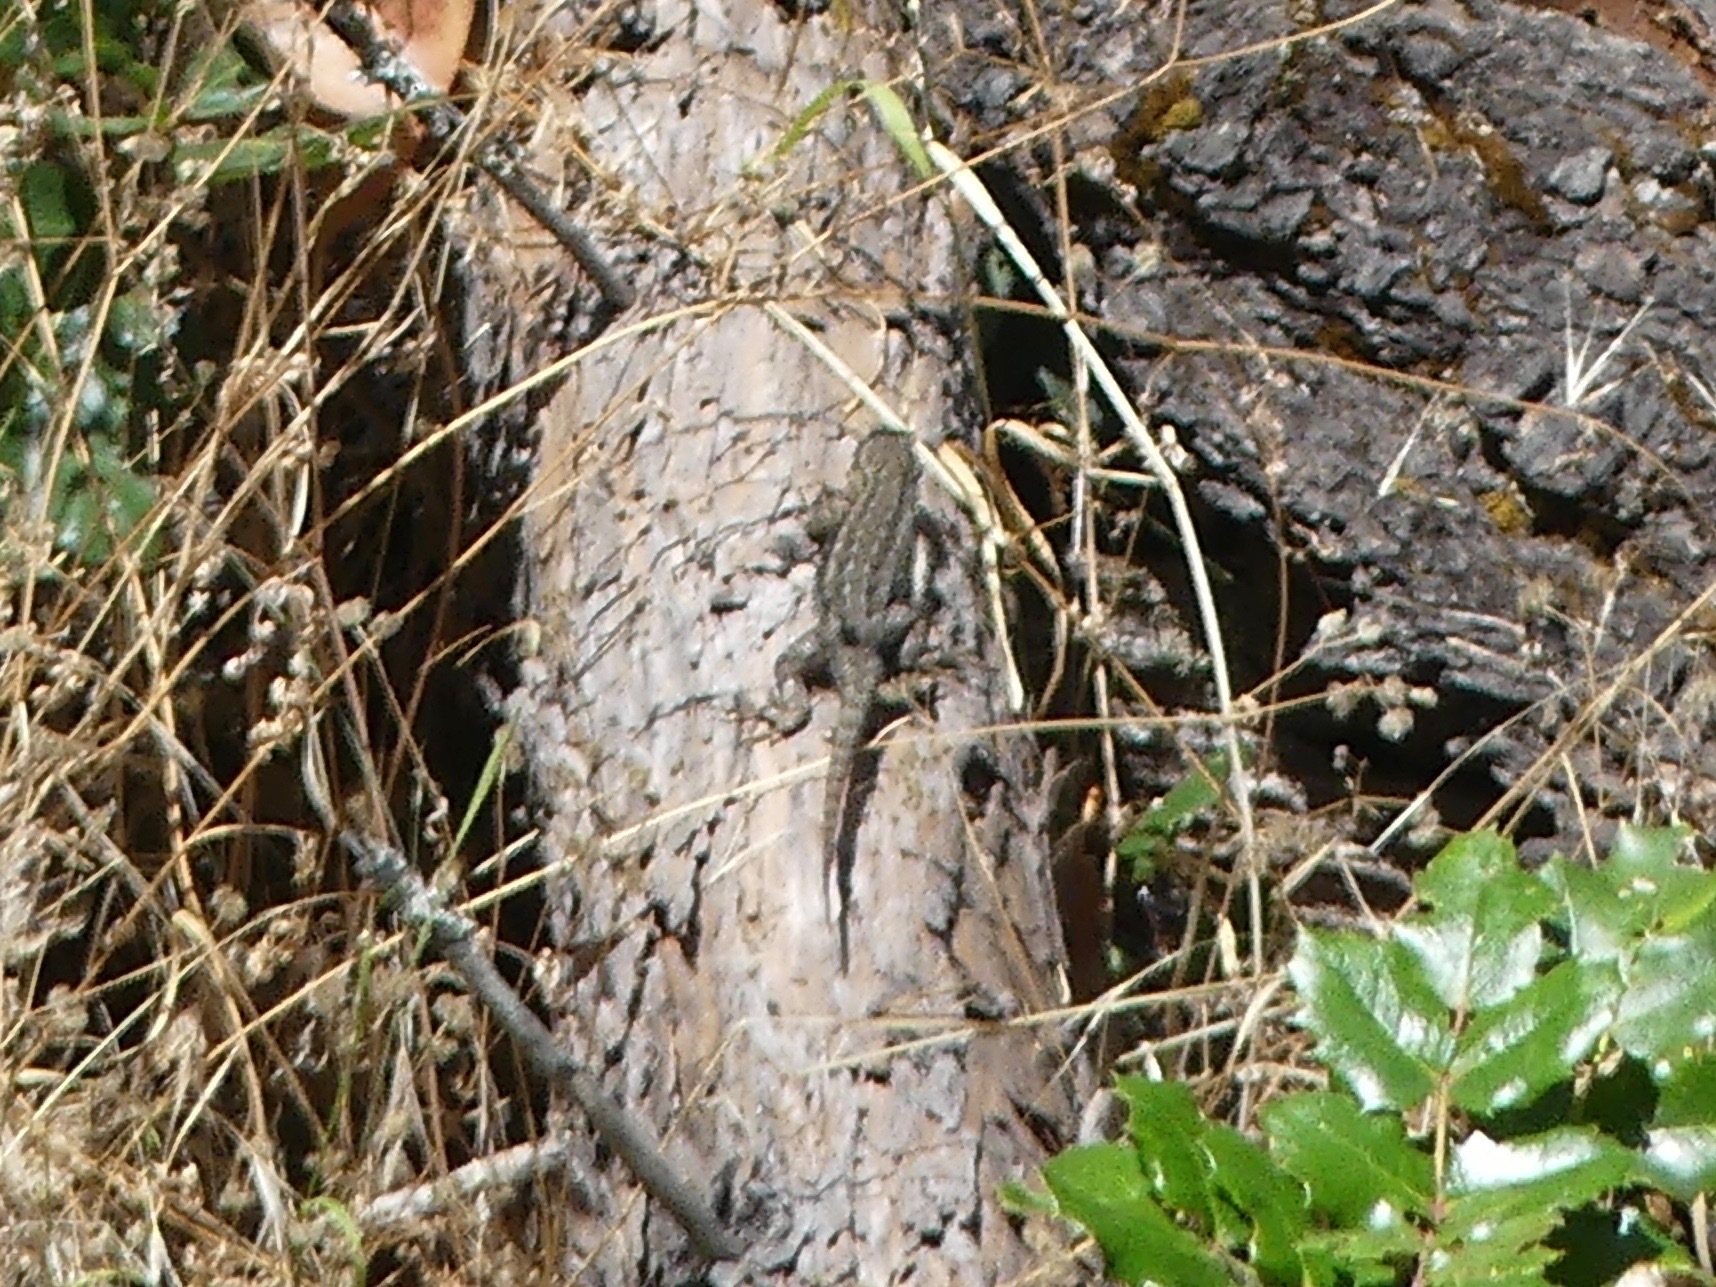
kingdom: Animalia
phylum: Chordata
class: Squamata
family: Phrynosomatidae
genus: Sceloporus
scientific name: Sceloporus occidentalis
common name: Western fence lizard
